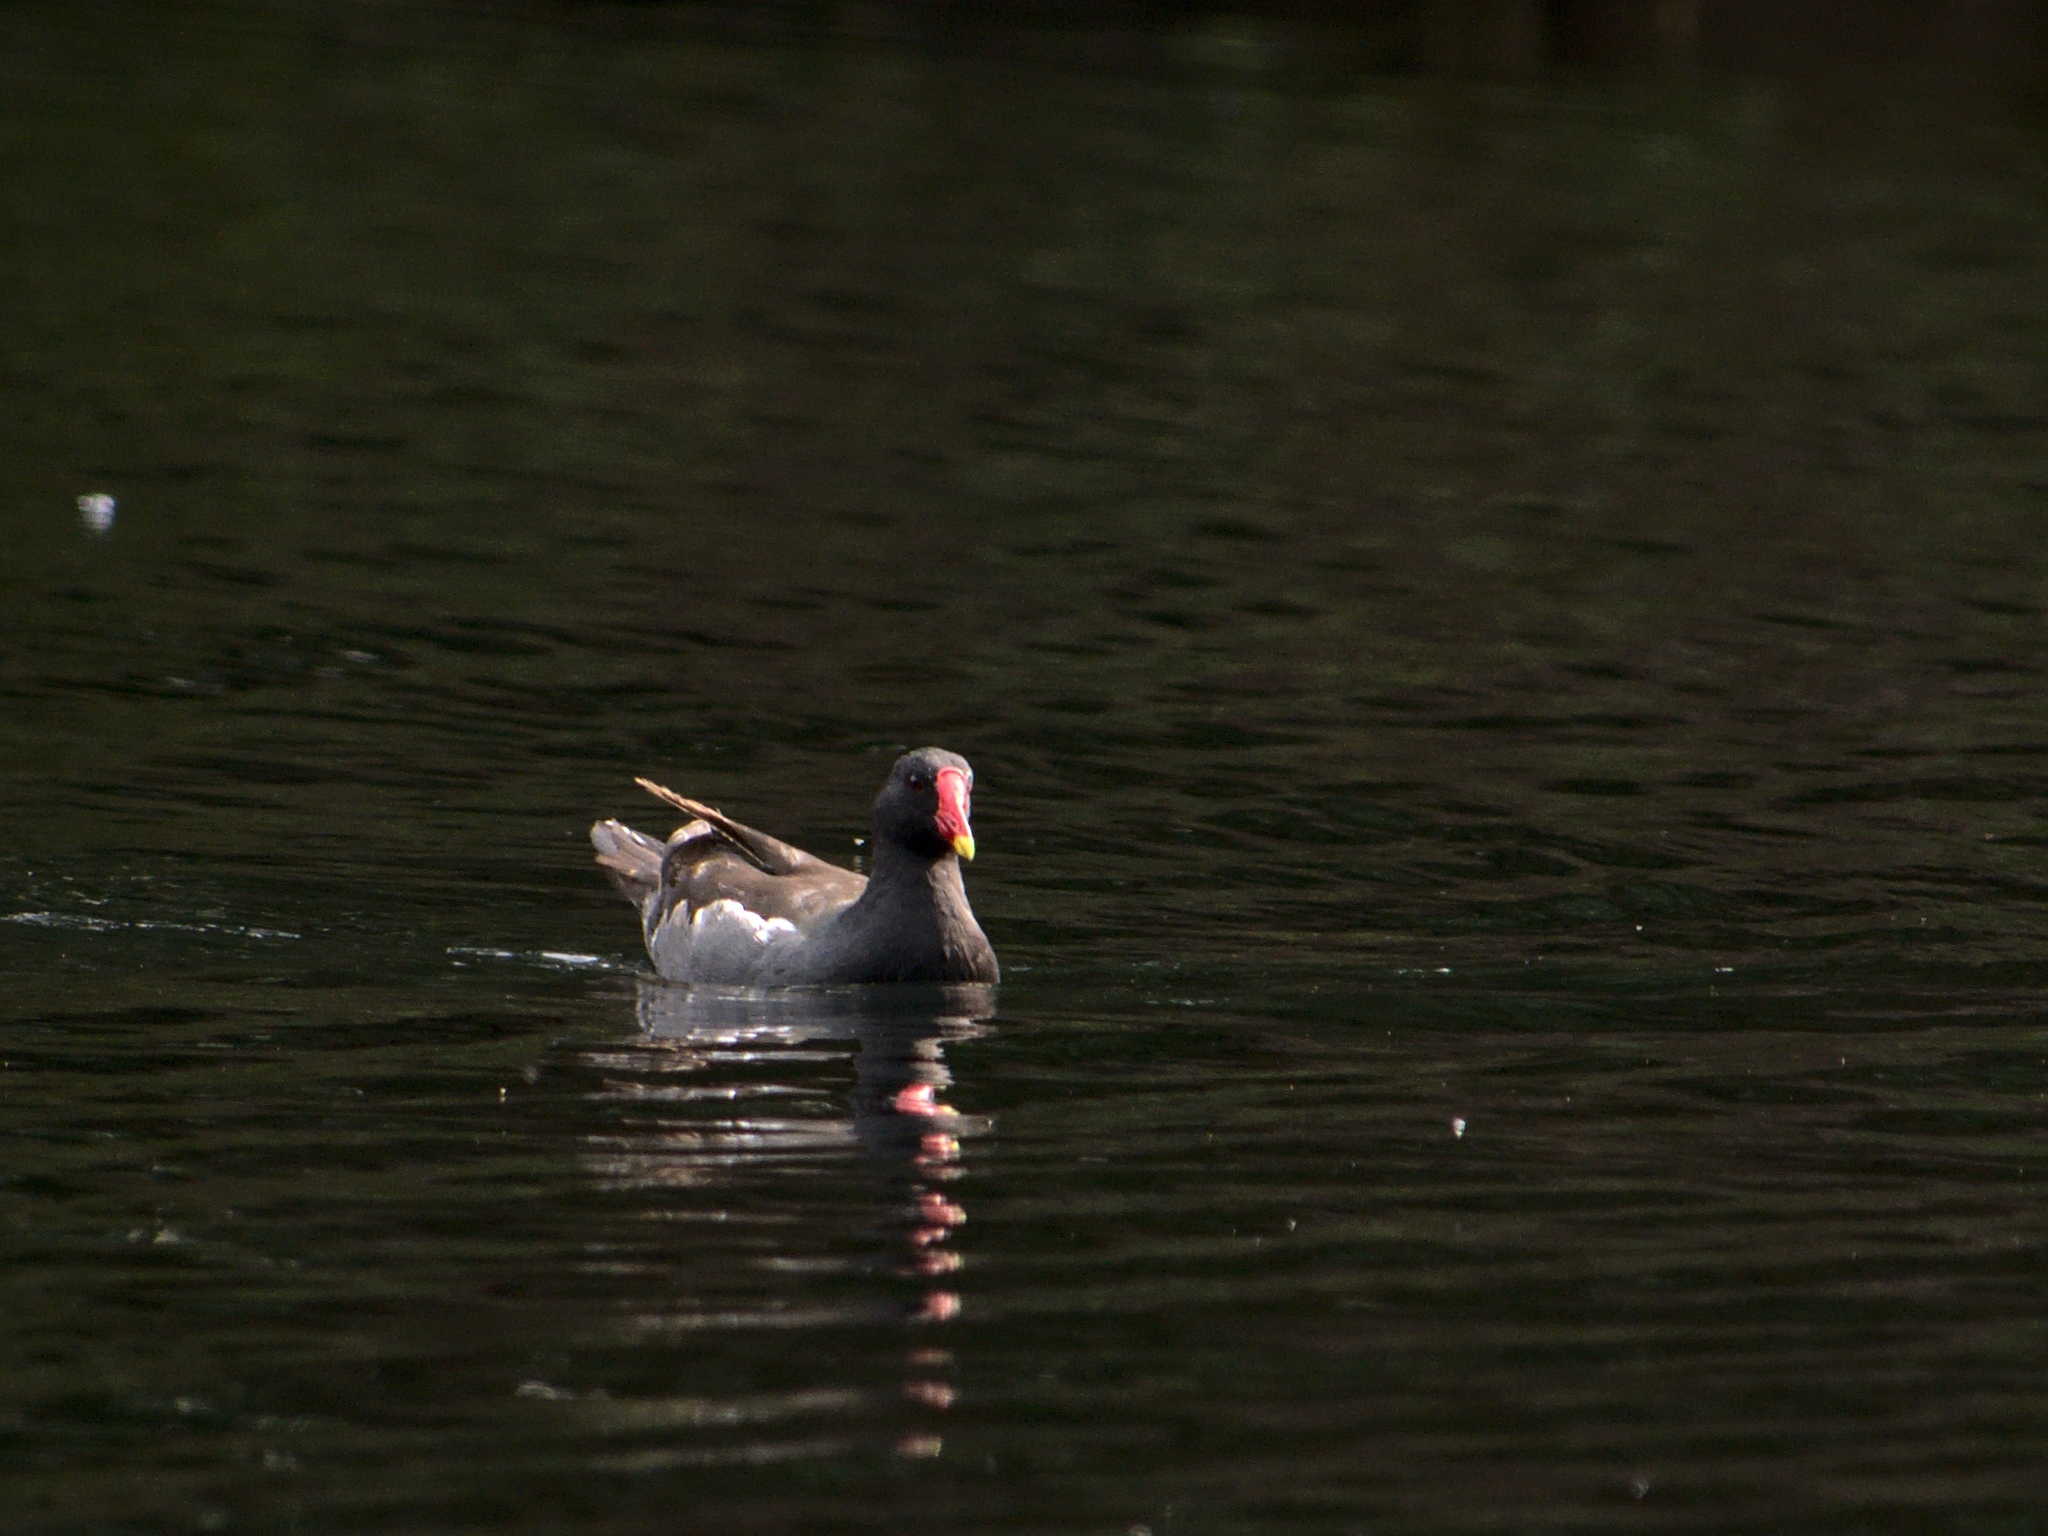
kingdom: Animalia
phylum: Chordata
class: Aves
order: Gruiformes
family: Rallidae
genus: Gallinula
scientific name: Gallinula chloropus
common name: Common moorhen
